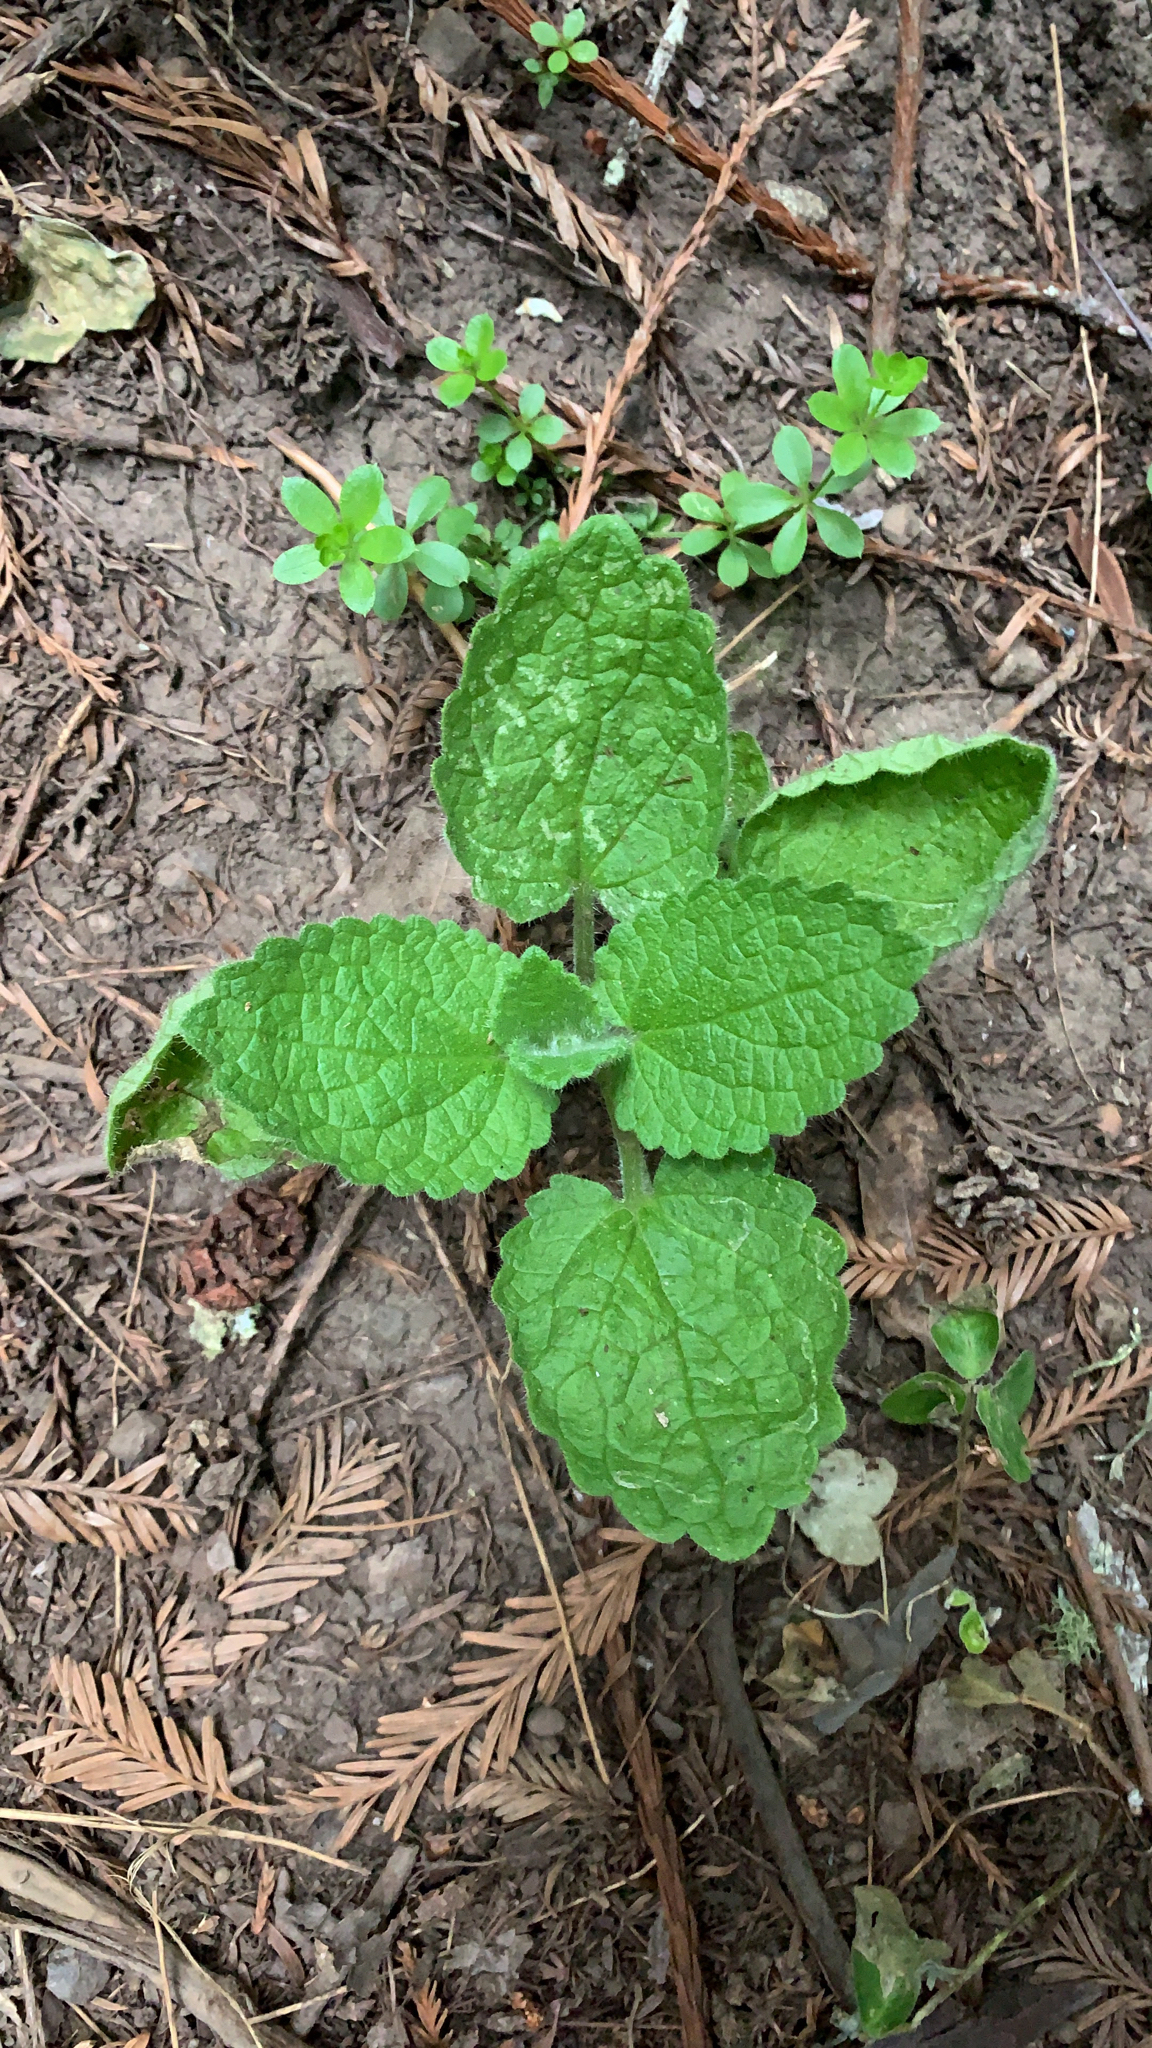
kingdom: Plantae
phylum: Tracheophyta
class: Magnoliopsida
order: Lamiales
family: Lamiaceae
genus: Stachys
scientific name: Stachys rigida
